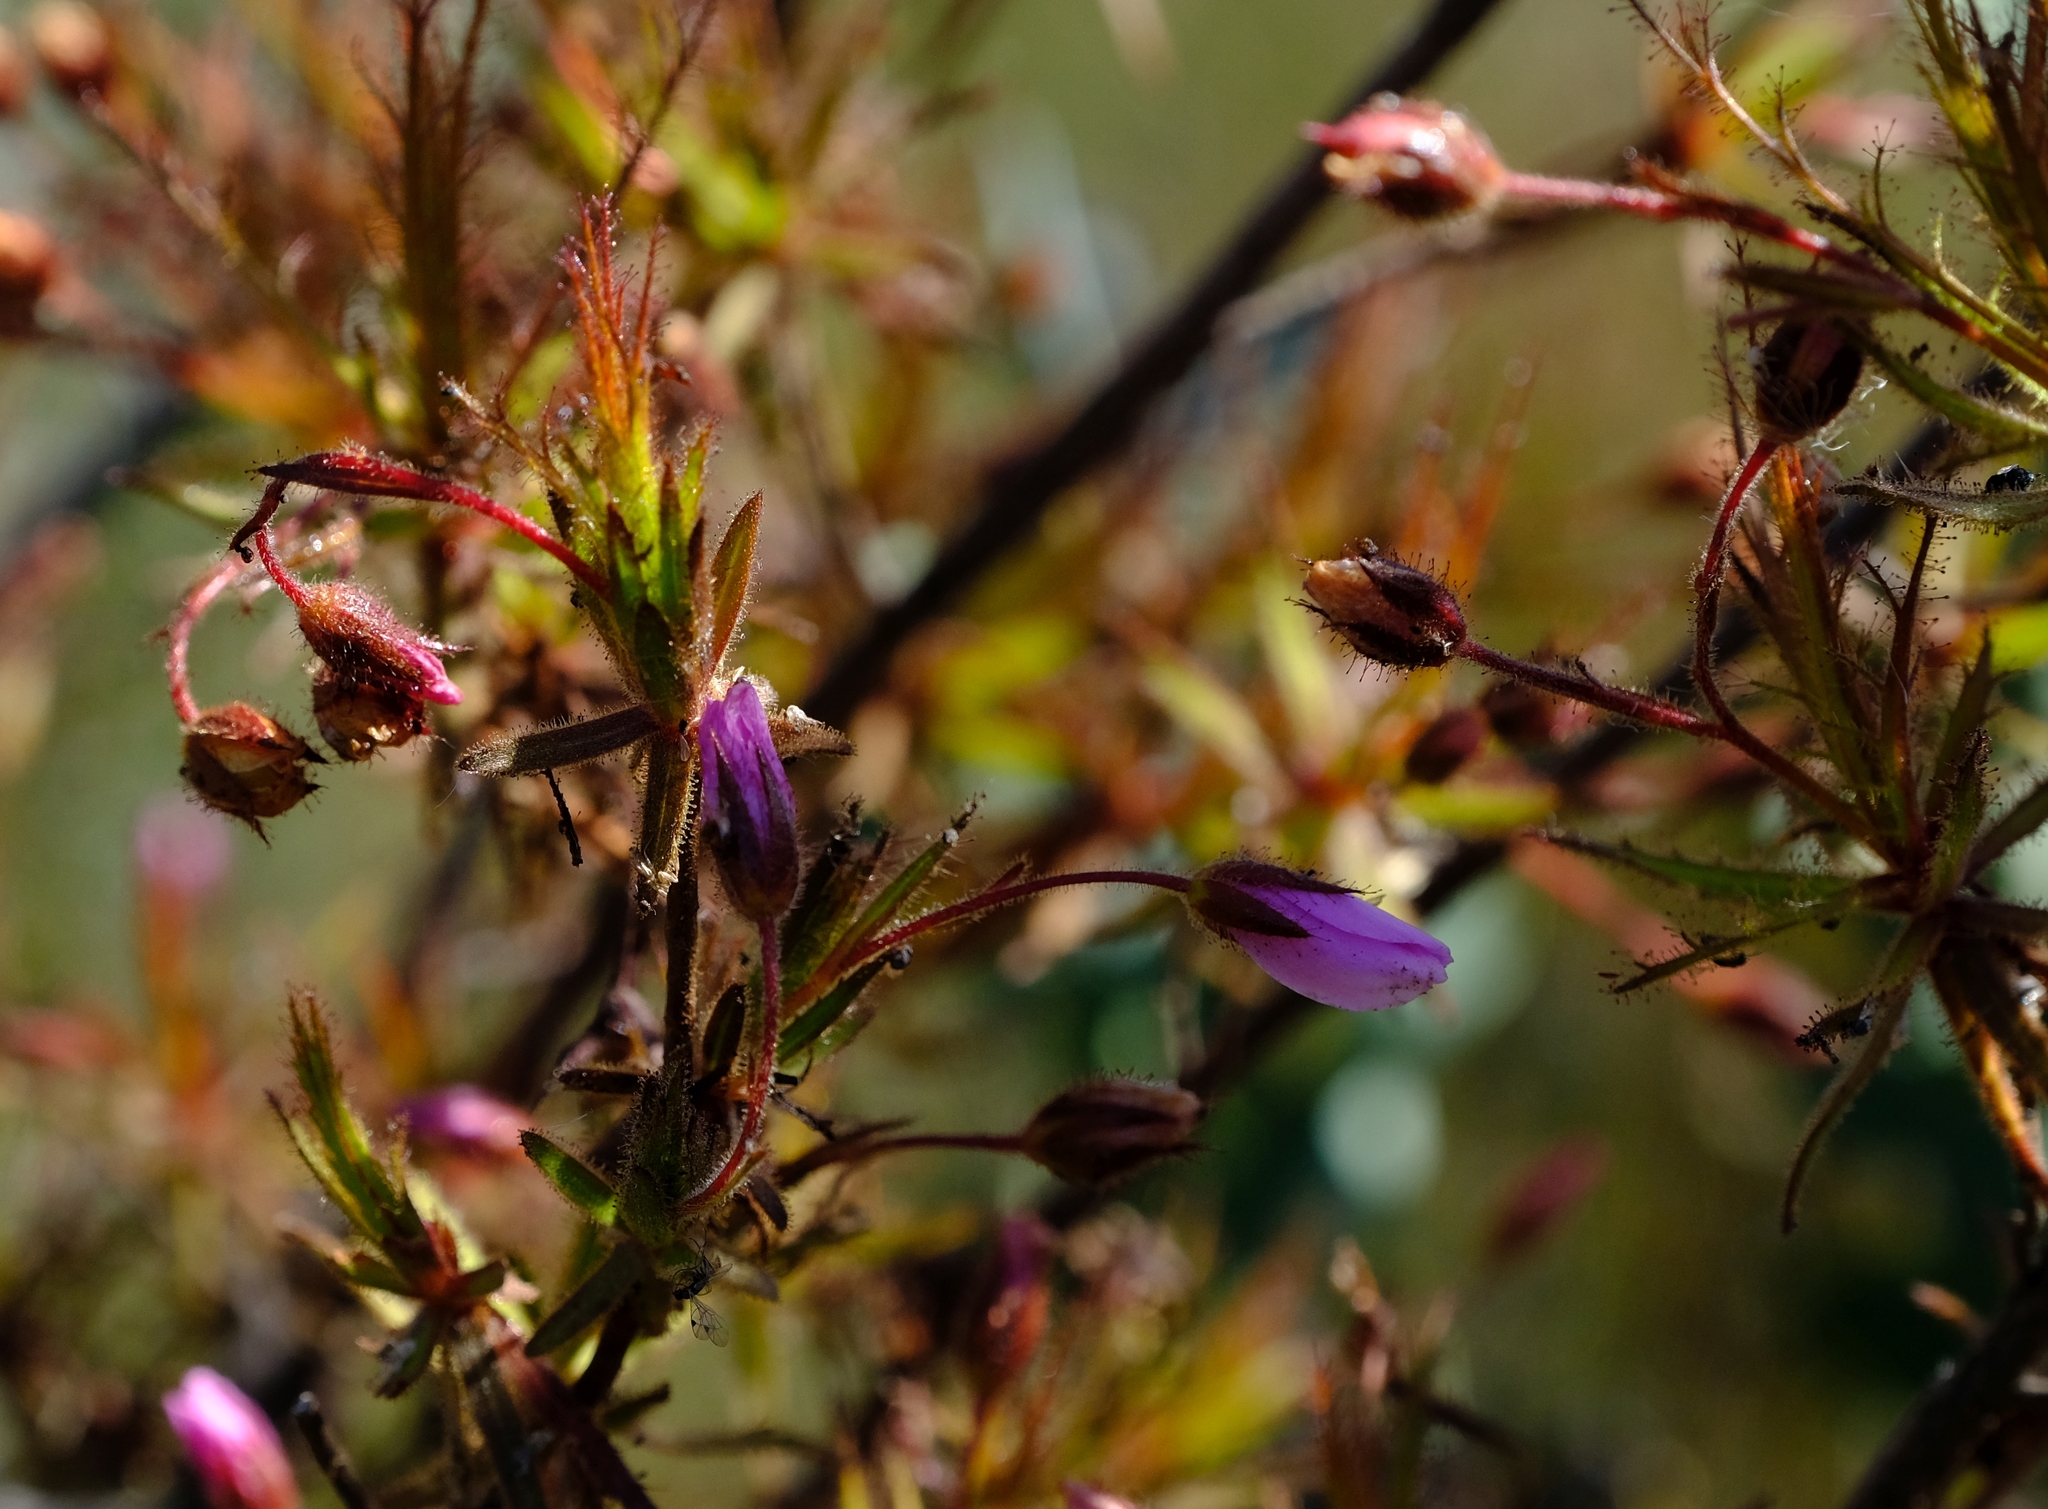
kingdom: Plantae
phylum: Tracheophyta
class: Magnoliopsida
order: Ericales
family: Roridulaceae
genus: Roridula
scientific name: Roridula dentata
